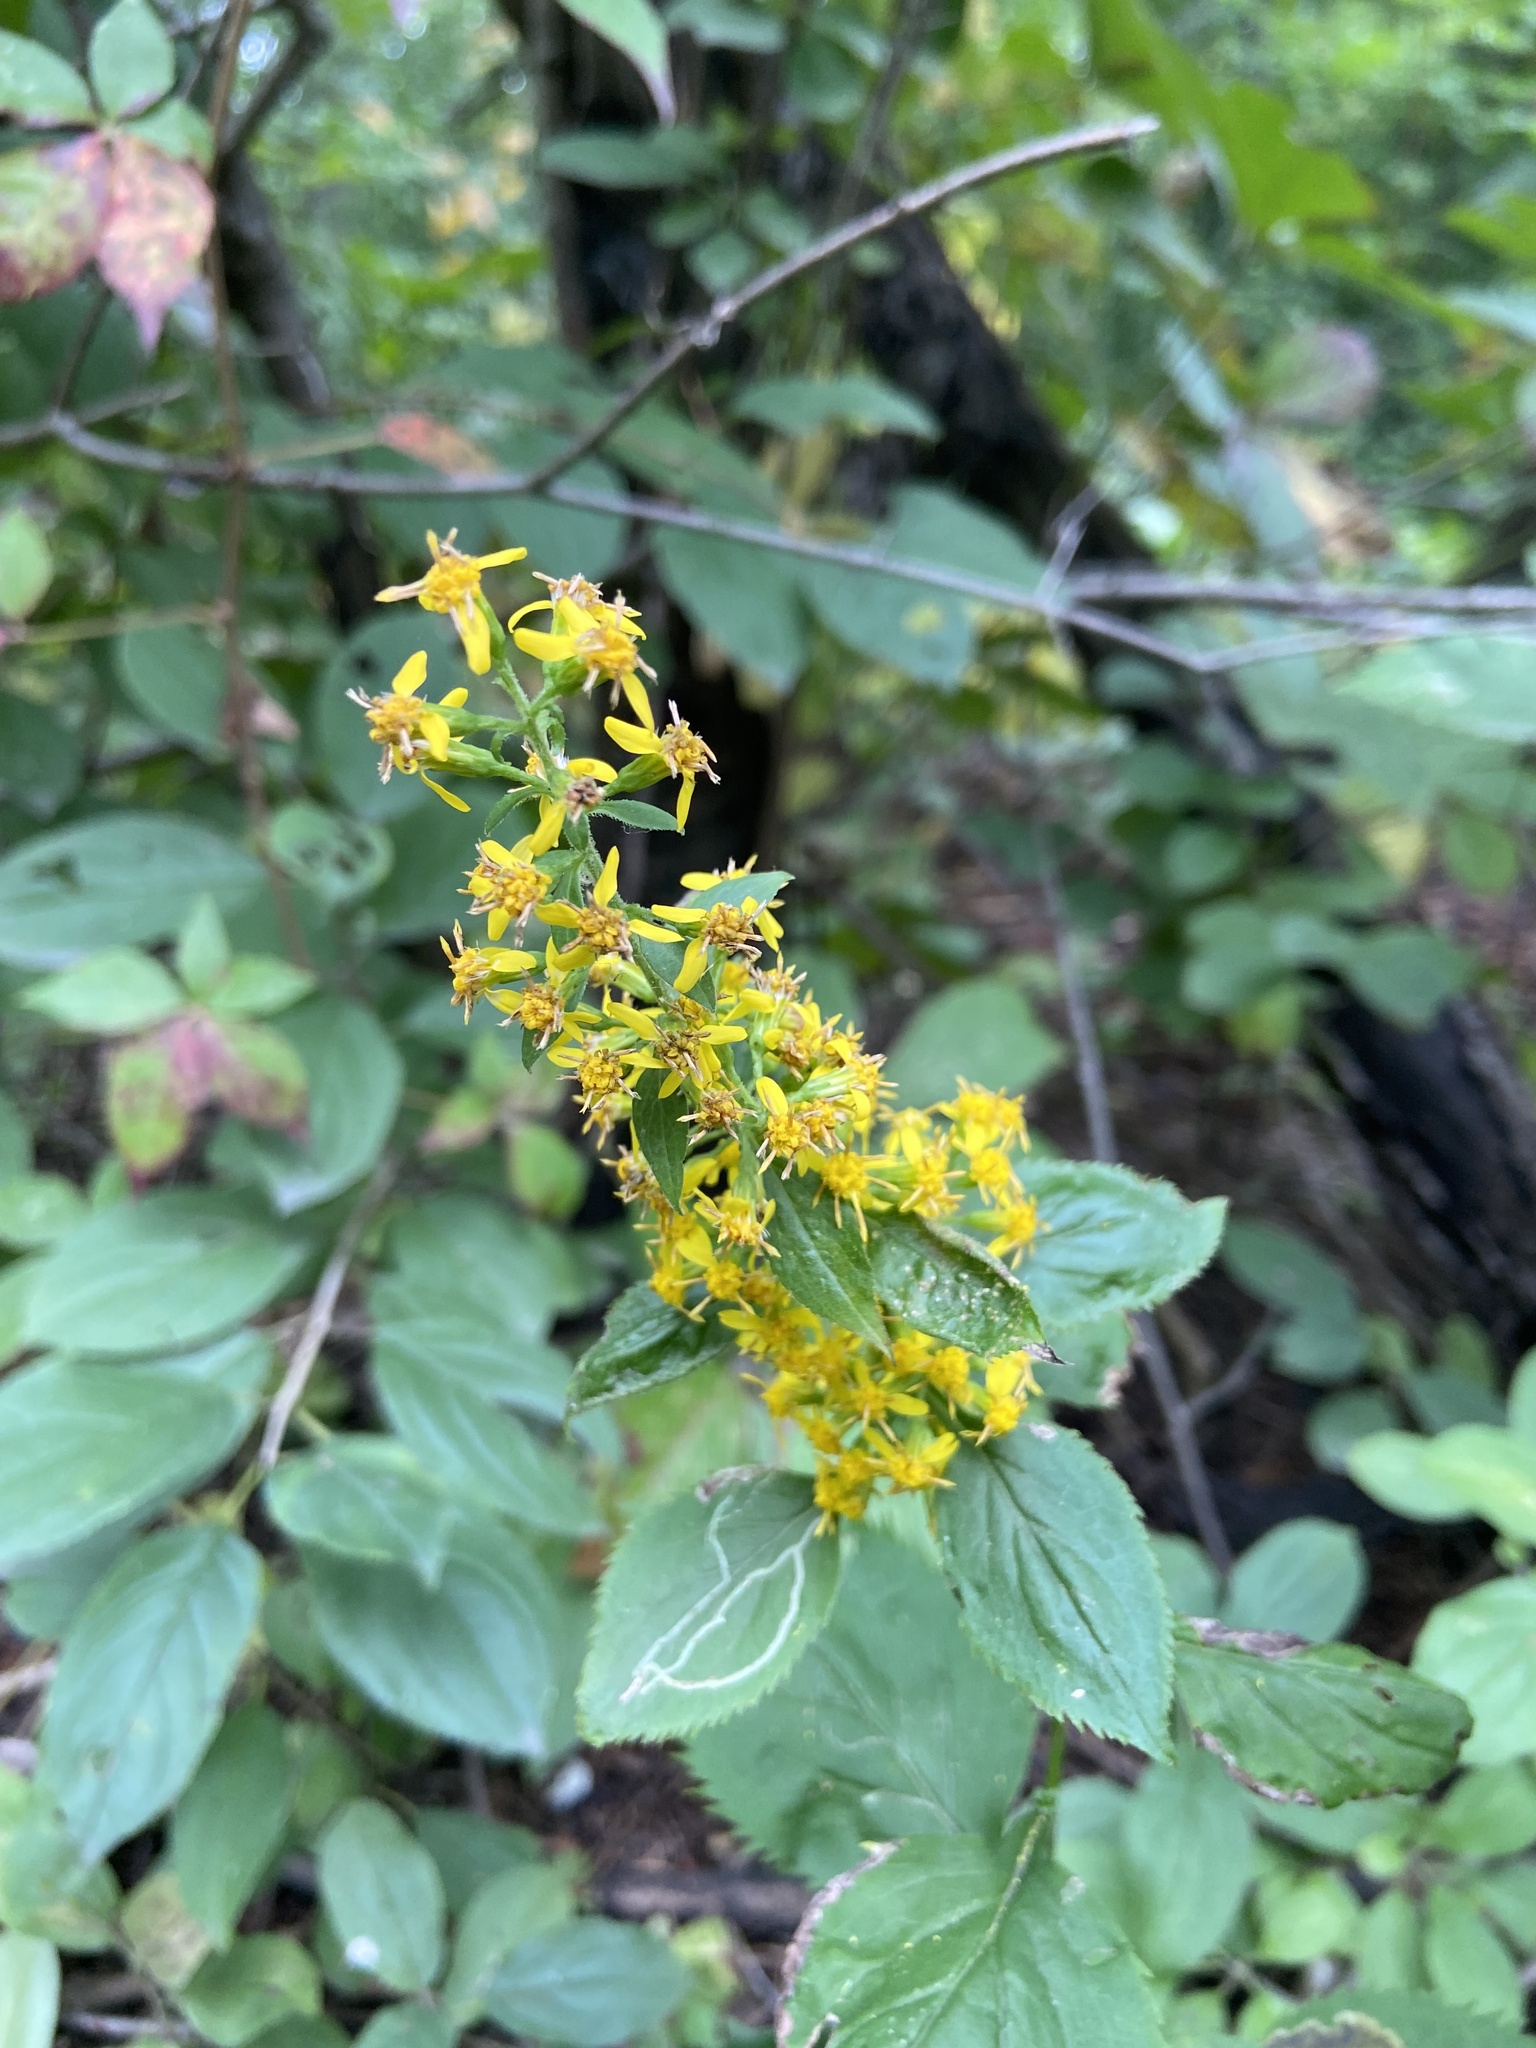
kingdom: Plantae
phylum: Tracheophyta
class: Magnoliopsida
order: Asterales
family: Asteraceae
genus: Solidago
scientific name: Solidago flexicaulis
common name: Zig-zag goldenrod
